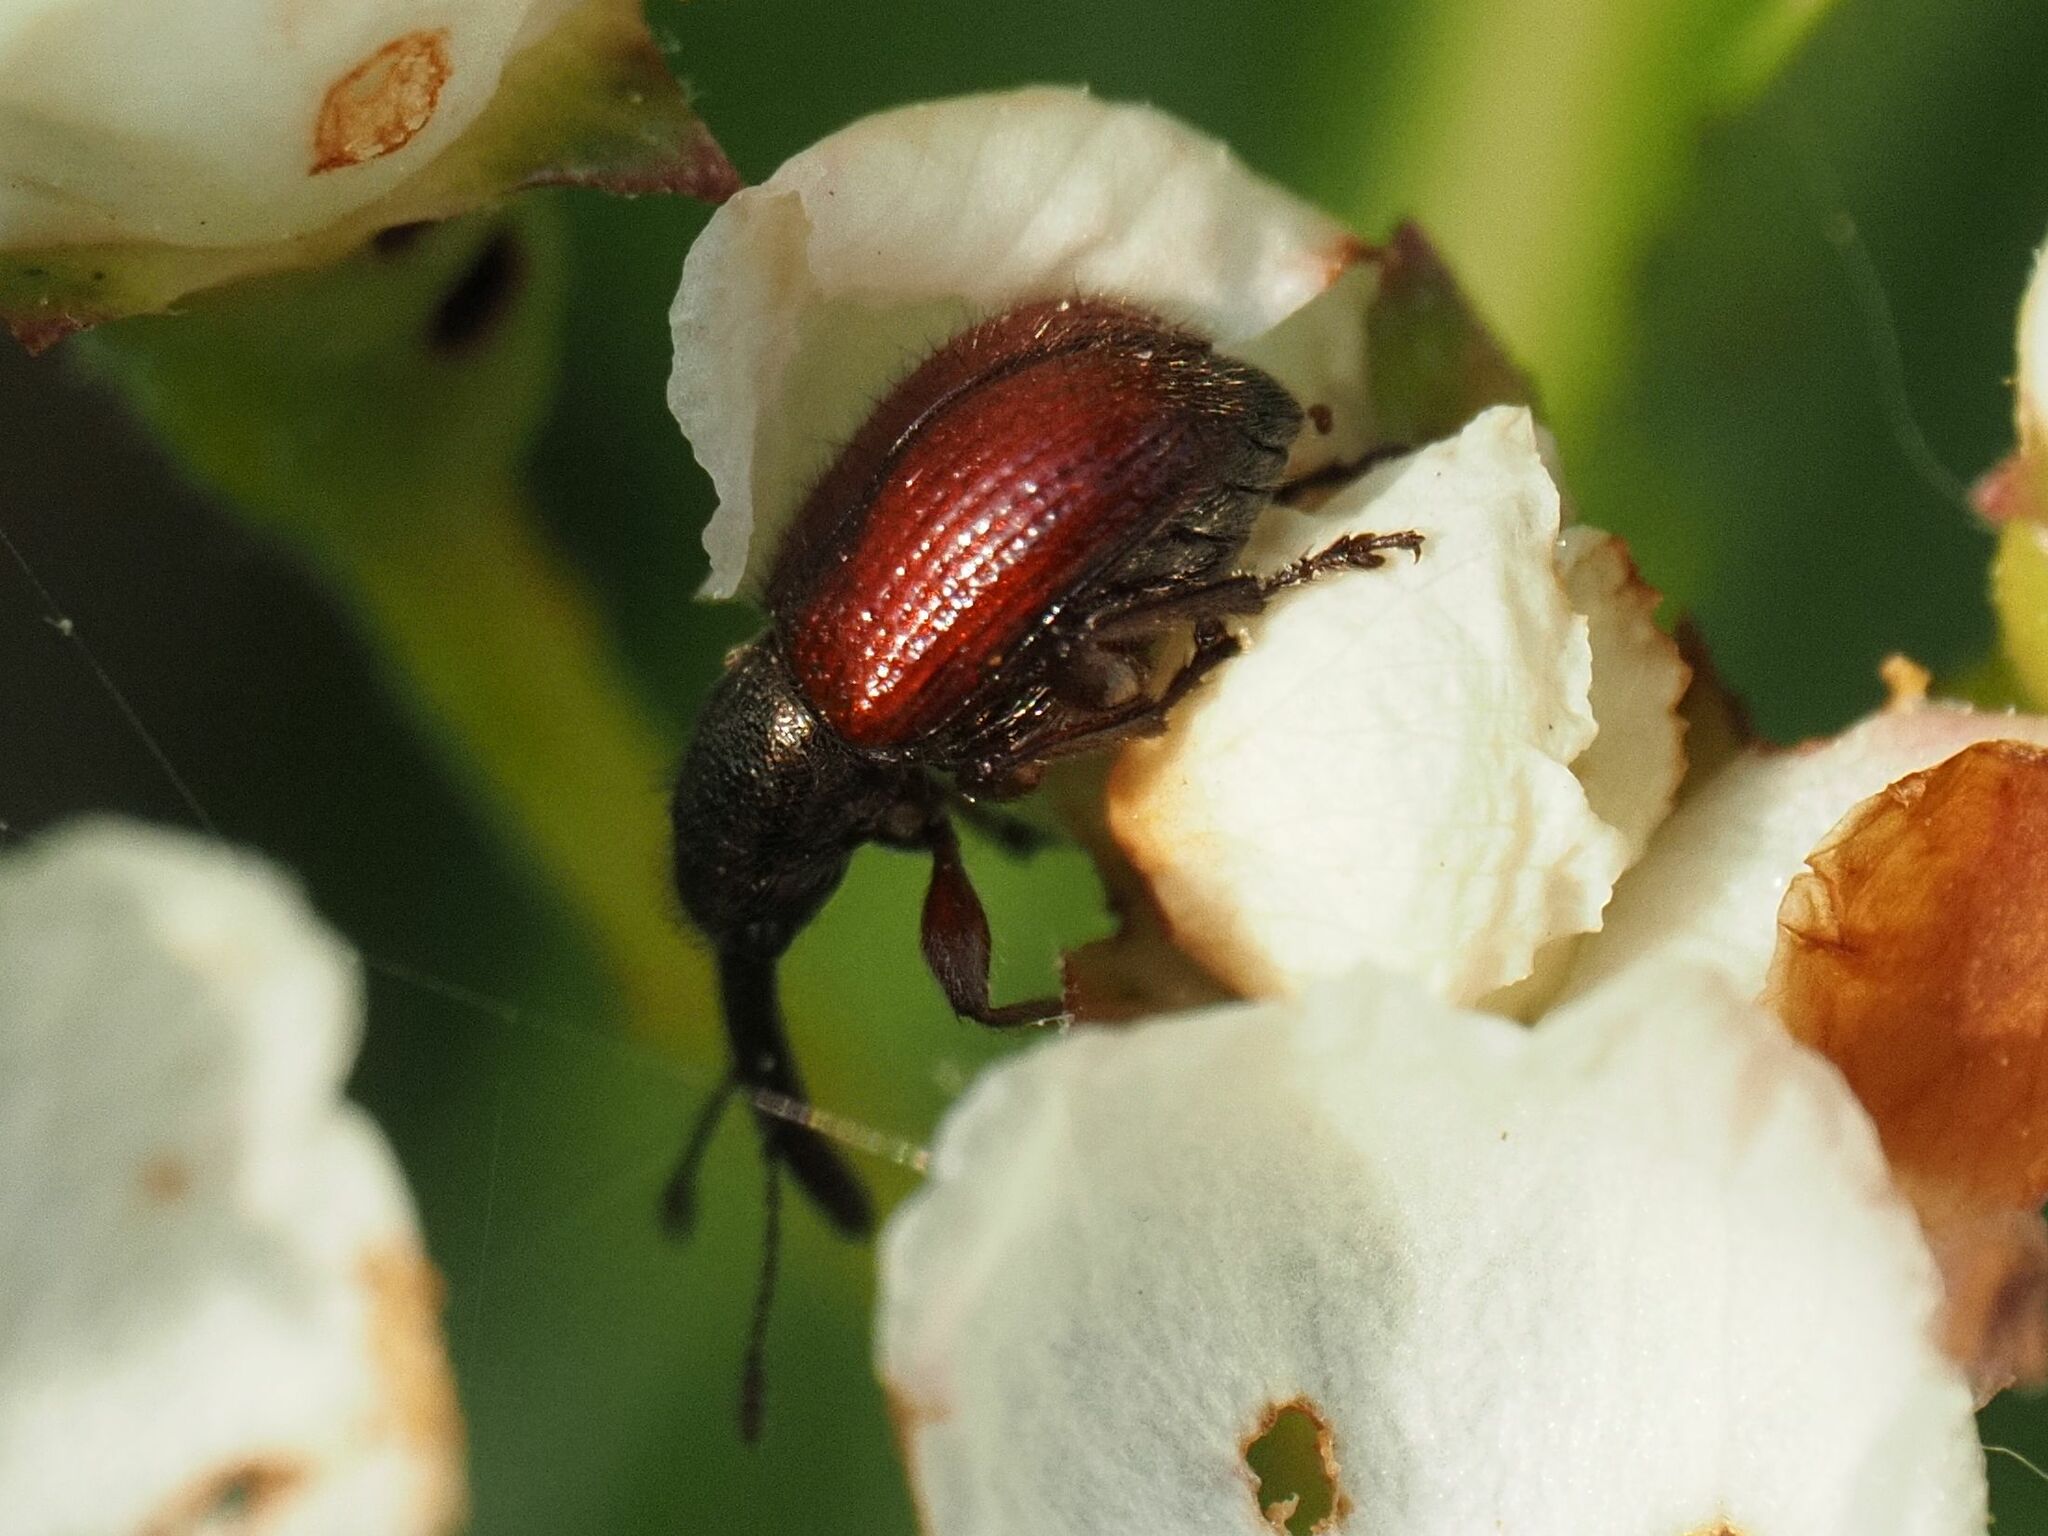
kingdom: Animalia
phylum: Arthropoda
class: Insecta
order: Coleoptera
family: Rhynchitidae
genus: Tatianaerhynchites
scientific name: Tatianaerhynchites aequatus
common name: Apple fruit rhynchites
